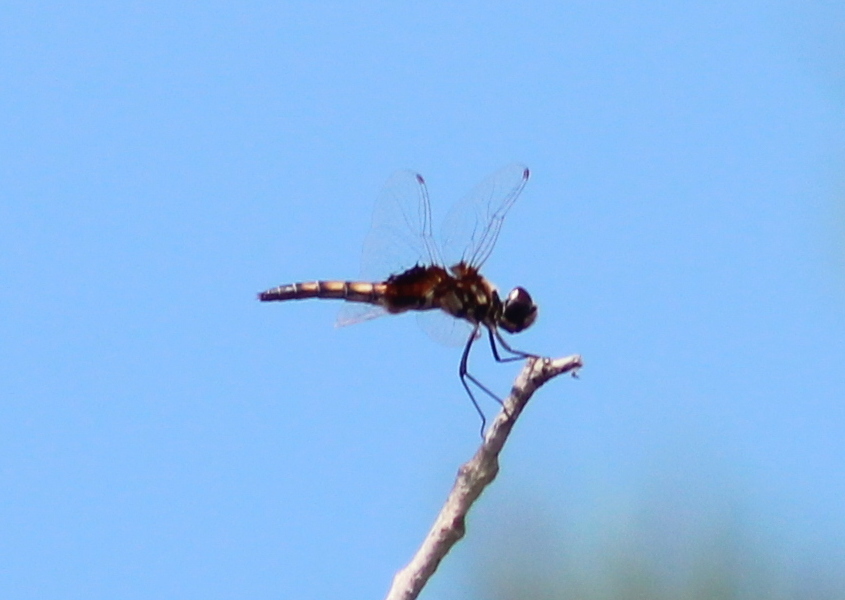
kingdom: Animalia
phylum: Arthropoda
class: Insecta
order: Odonata
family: Libellulidae
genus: Macrodiplax
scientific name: Macrodiplax balteata
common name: Marl pennant
